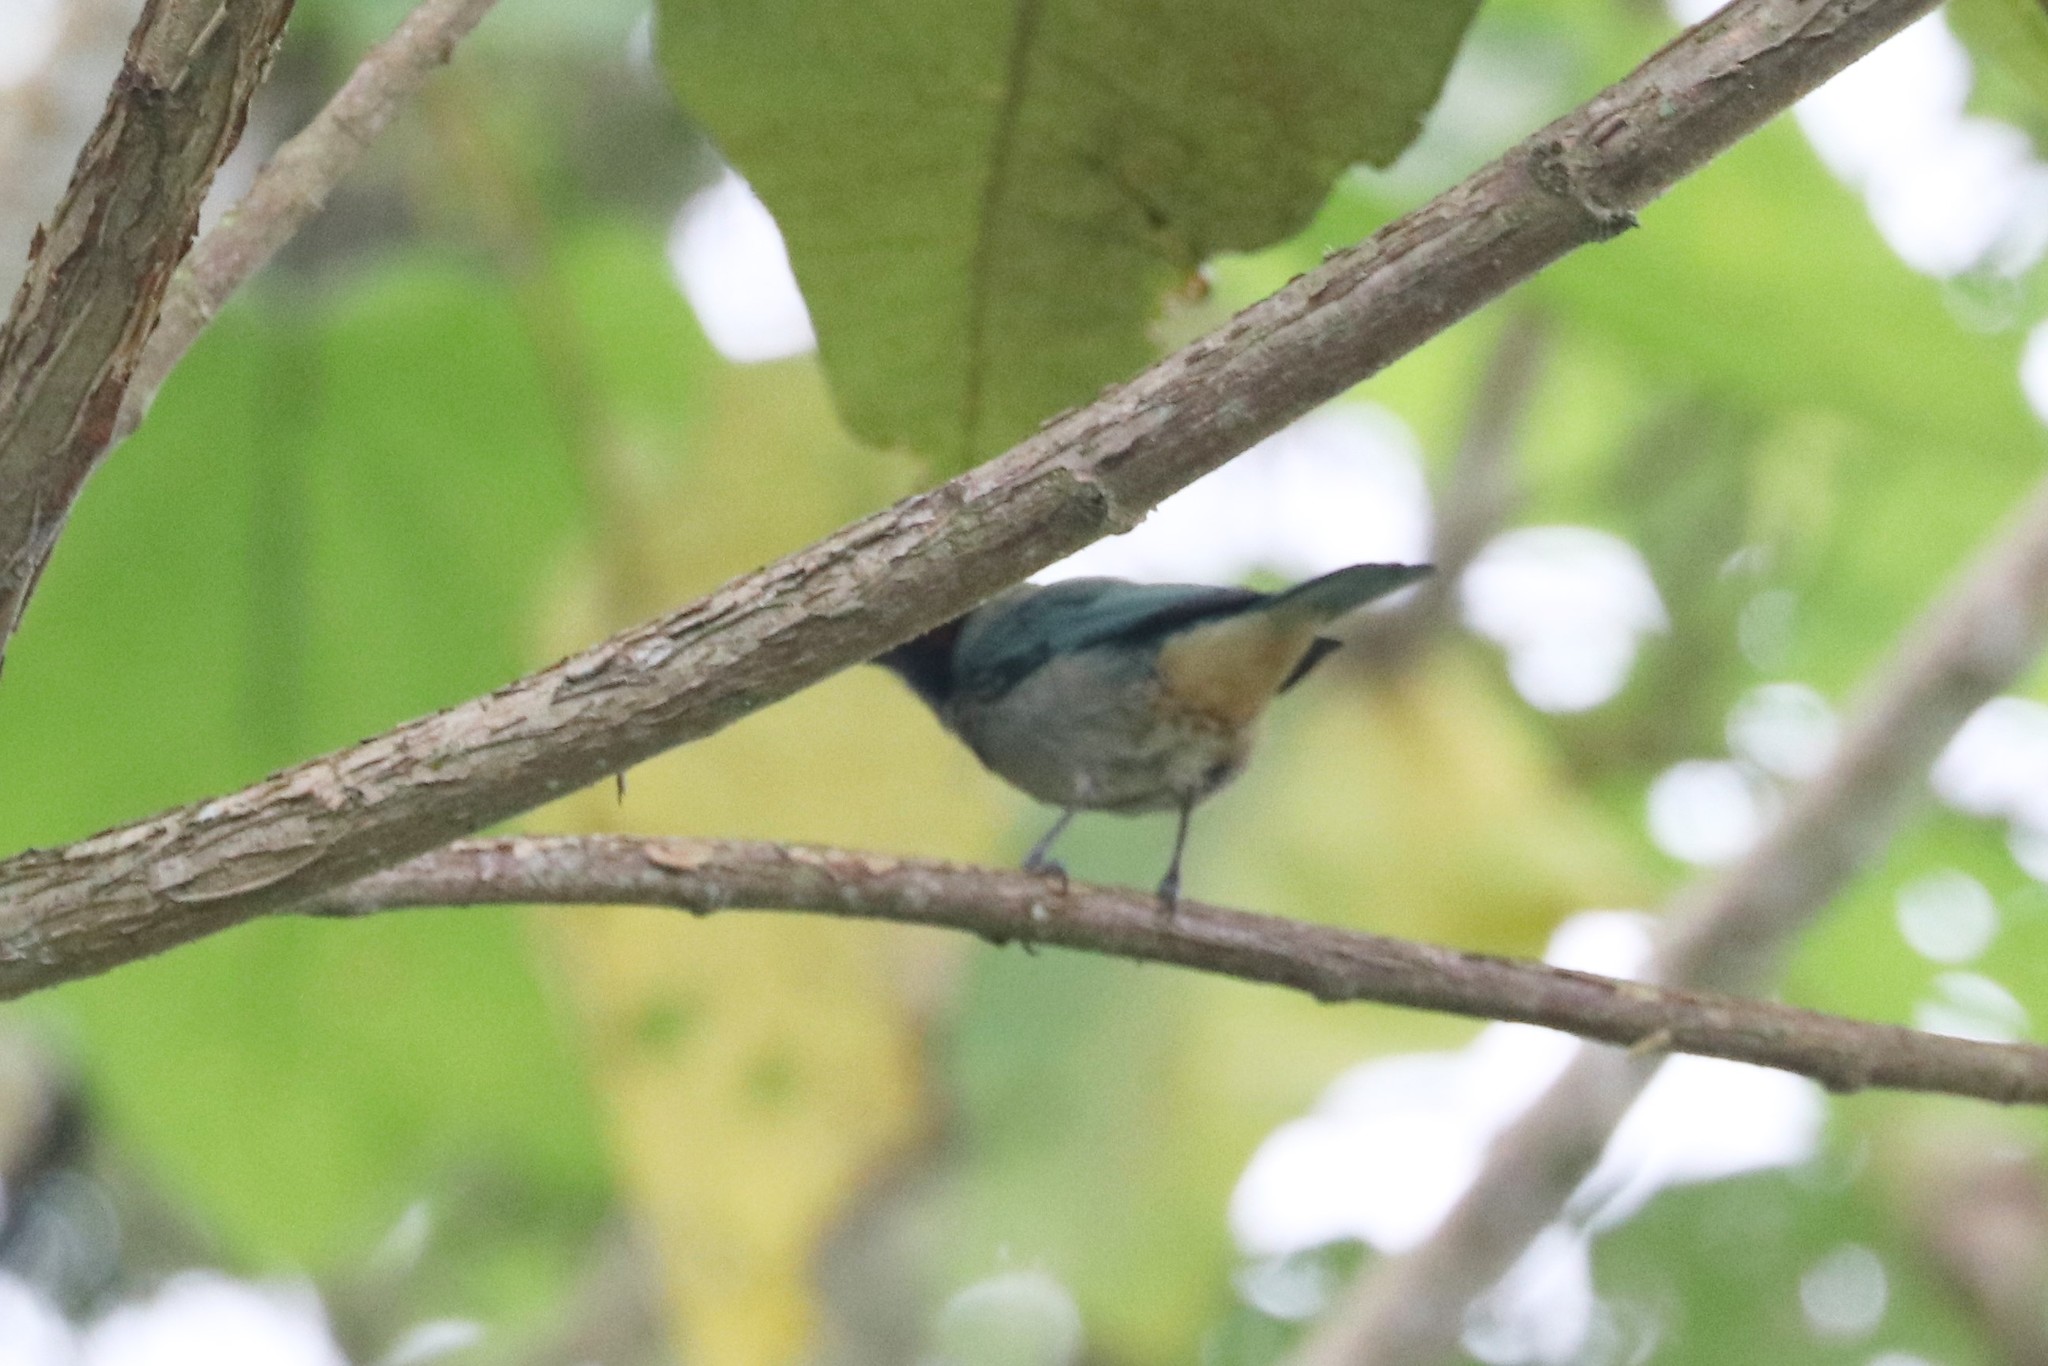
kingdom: Animalia
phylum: Chordata
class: Aves
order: Passeriformes
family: Thraupidae
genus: Stilpnia
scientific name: Stilpnia vitriolina
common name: Scrub tanager
